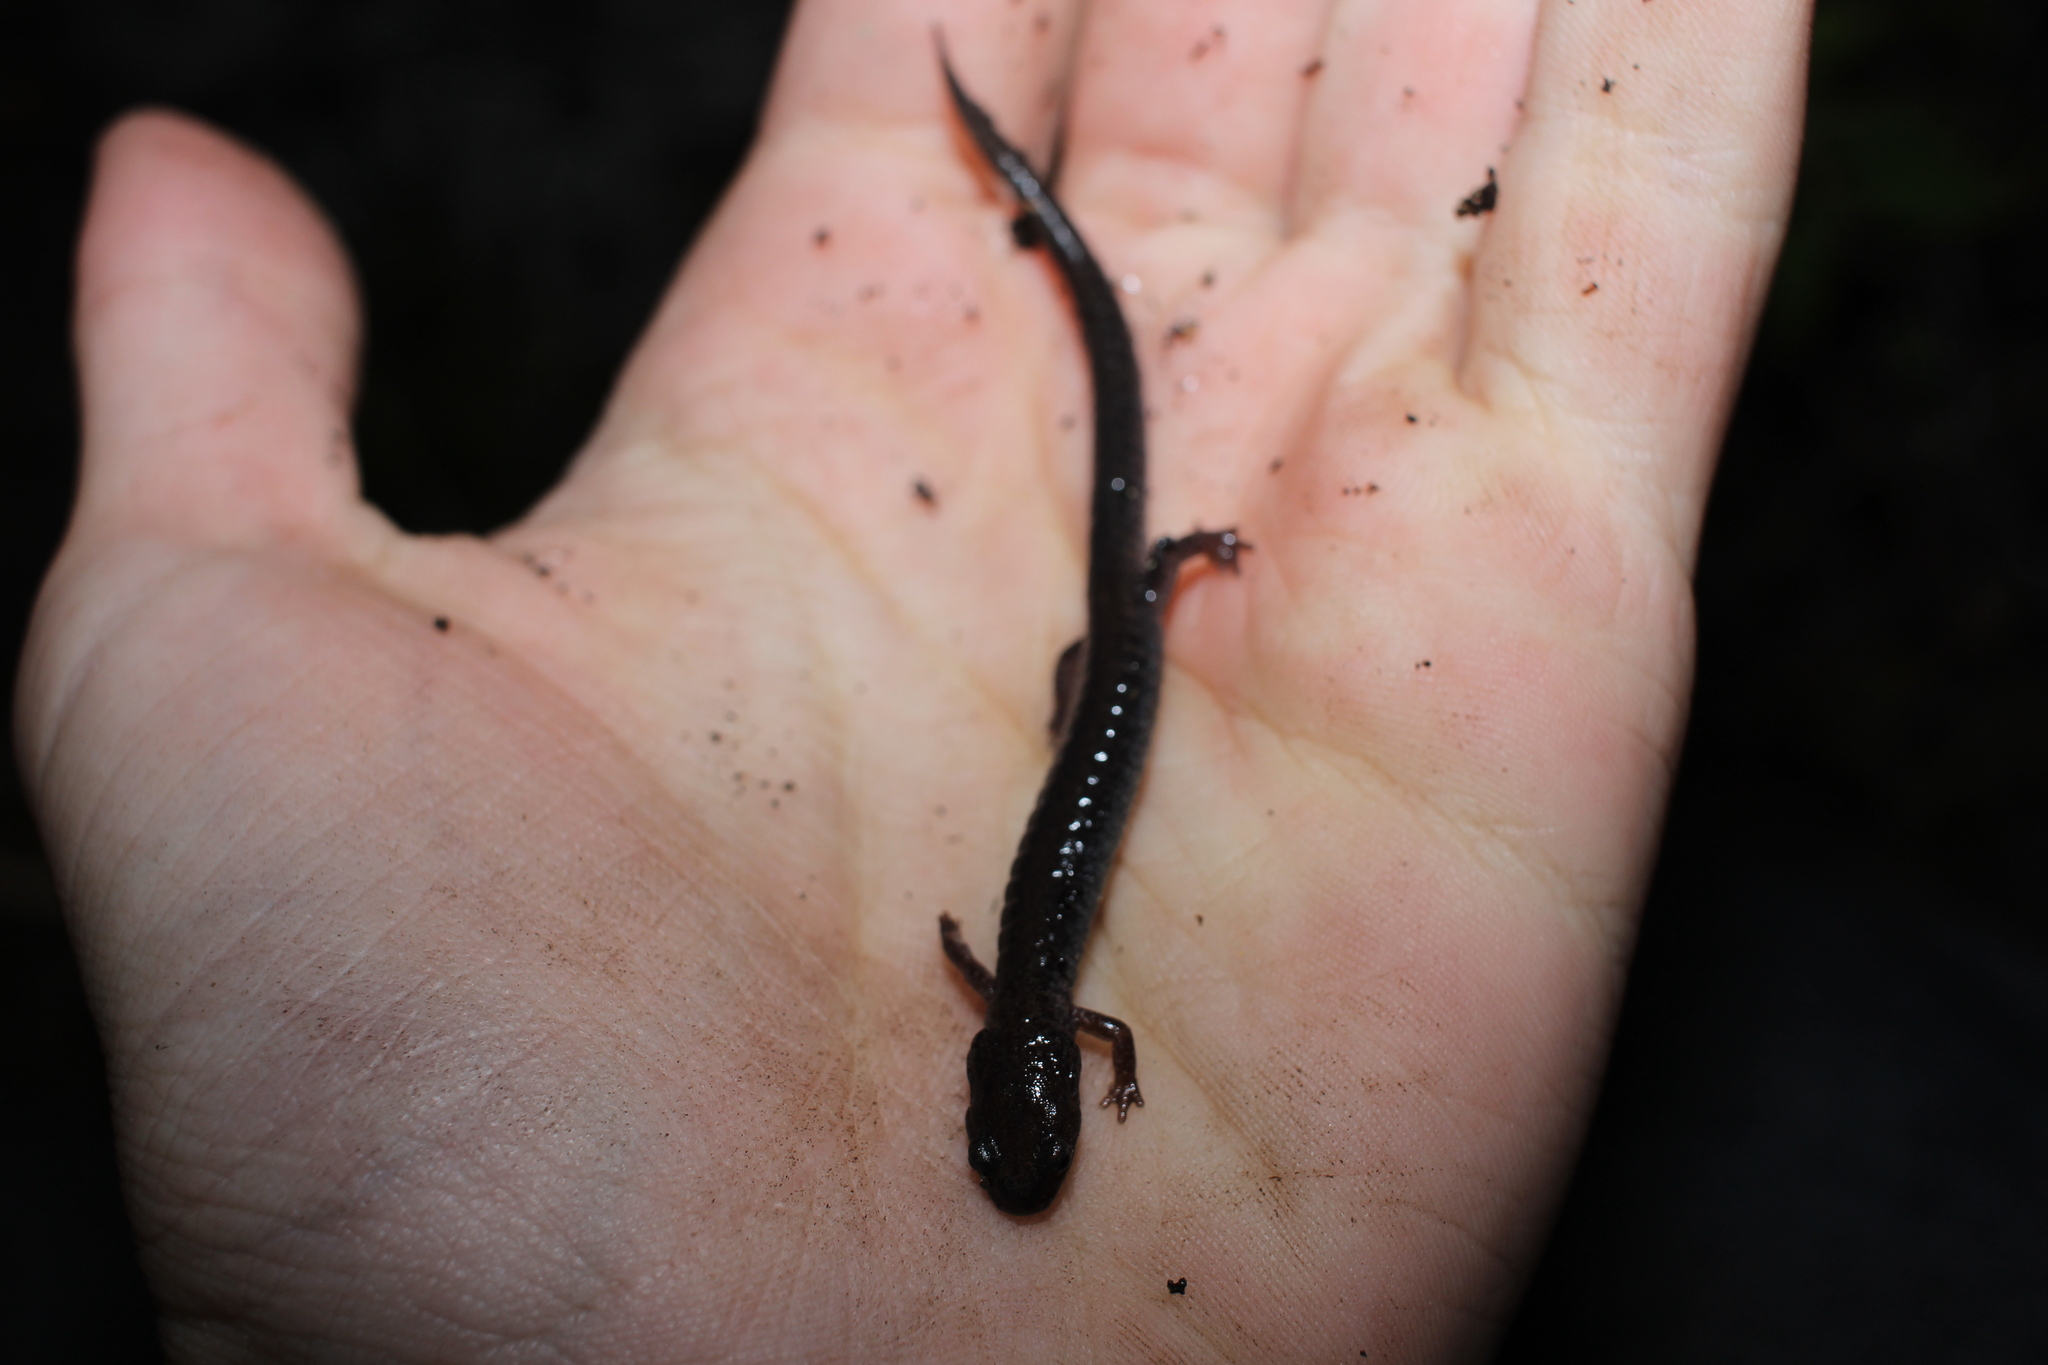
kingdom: Animalia
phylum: Chordata
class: Amphibia
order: Caudata
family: Plethodontidae
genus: Plethodon
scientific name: Plethodon cinereus
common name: Redback salamander
